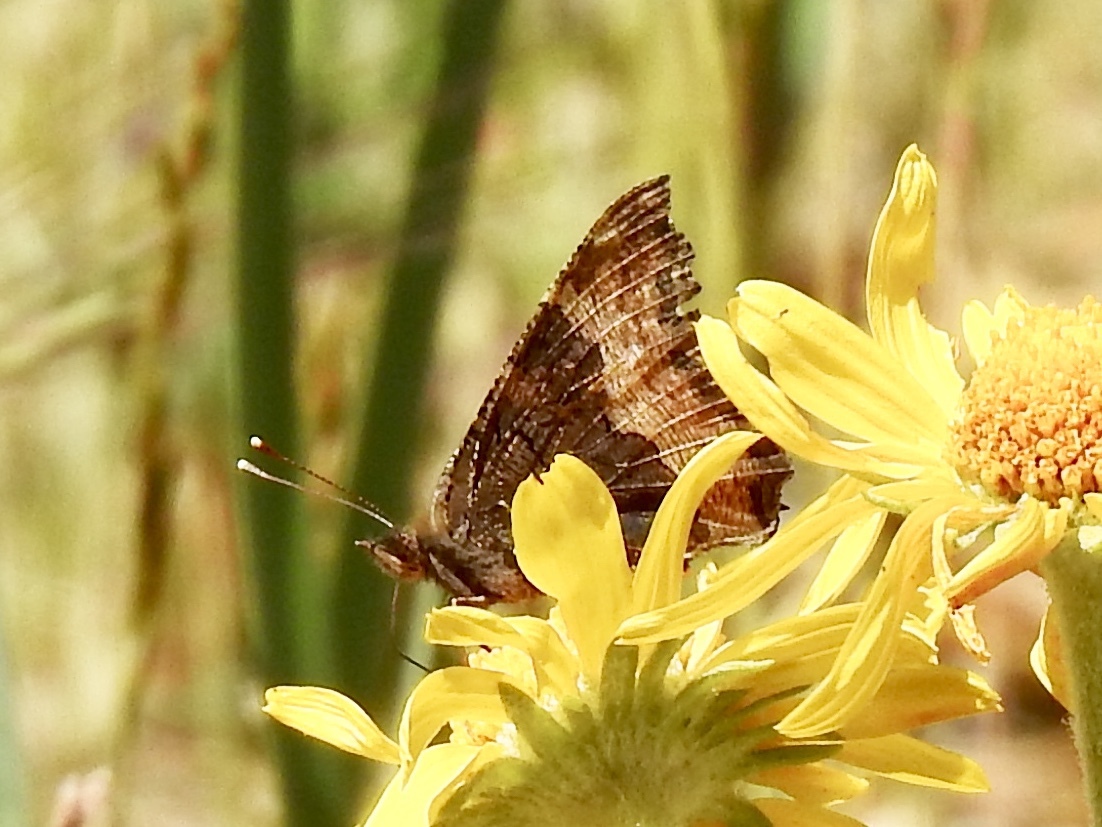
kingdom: Animalia
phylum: Arthropoda
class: Insecta
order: Lepidoptera
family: Nymphalidae
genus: Aglais
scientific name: Aglais milberti
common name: Milbert's tortoiseshell
